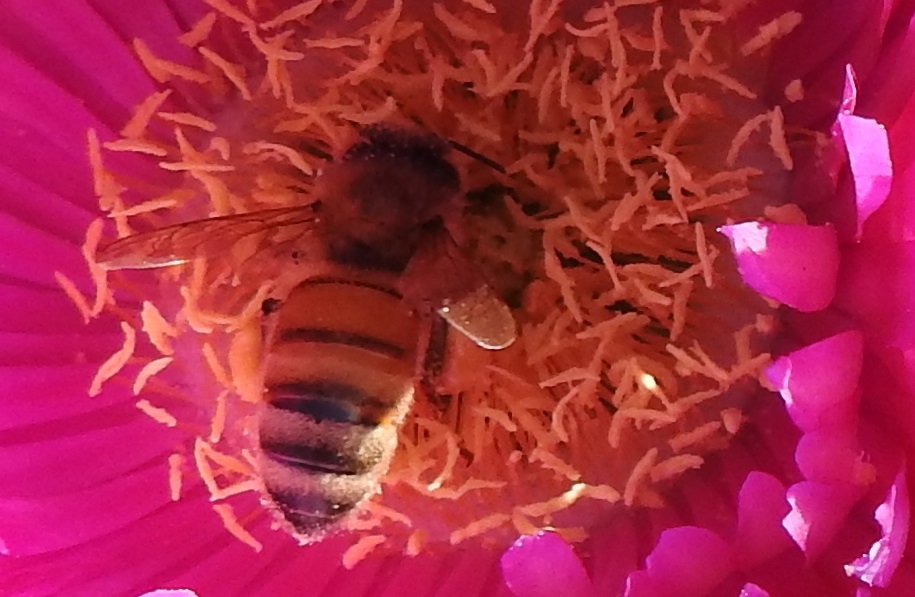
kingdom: Animalia
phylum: Arthropoda
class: Insecta
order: Hymenoptera
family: Apidae
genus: Apis
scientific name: Apis mellifera
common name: Honey bee
